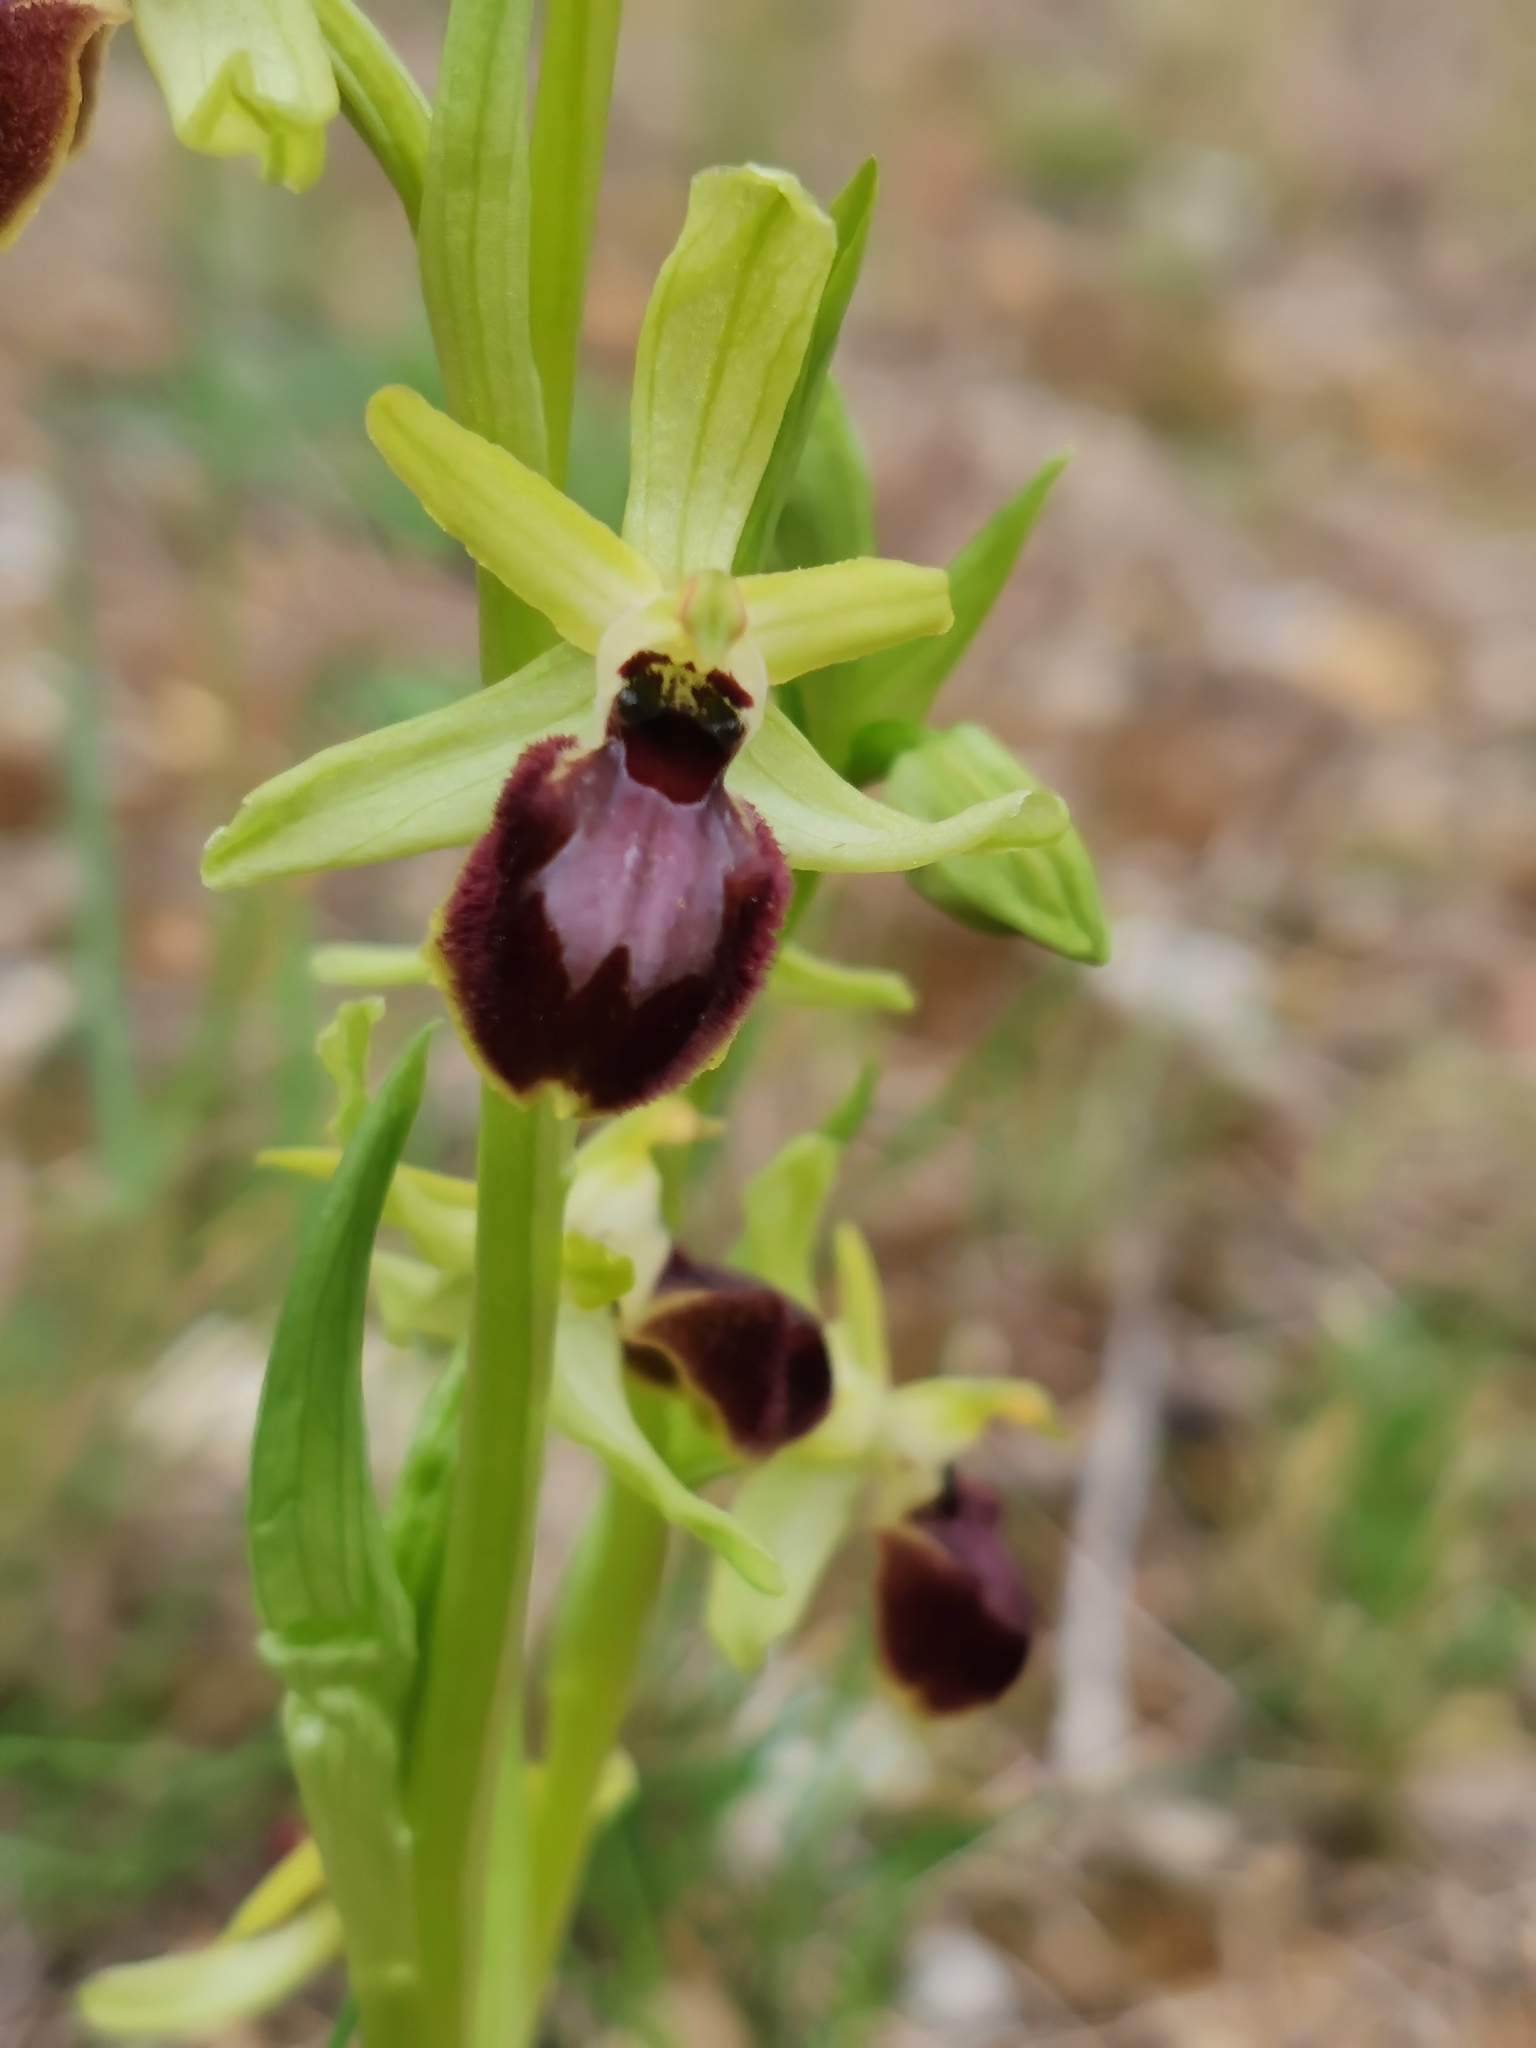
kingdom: Plantae
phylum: Tracheophyta
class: Liliopsida
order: Asparagales
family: Orchidaceae
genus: Ophrys
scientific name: Ophrys sphegodes
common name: Early spider-orchid
